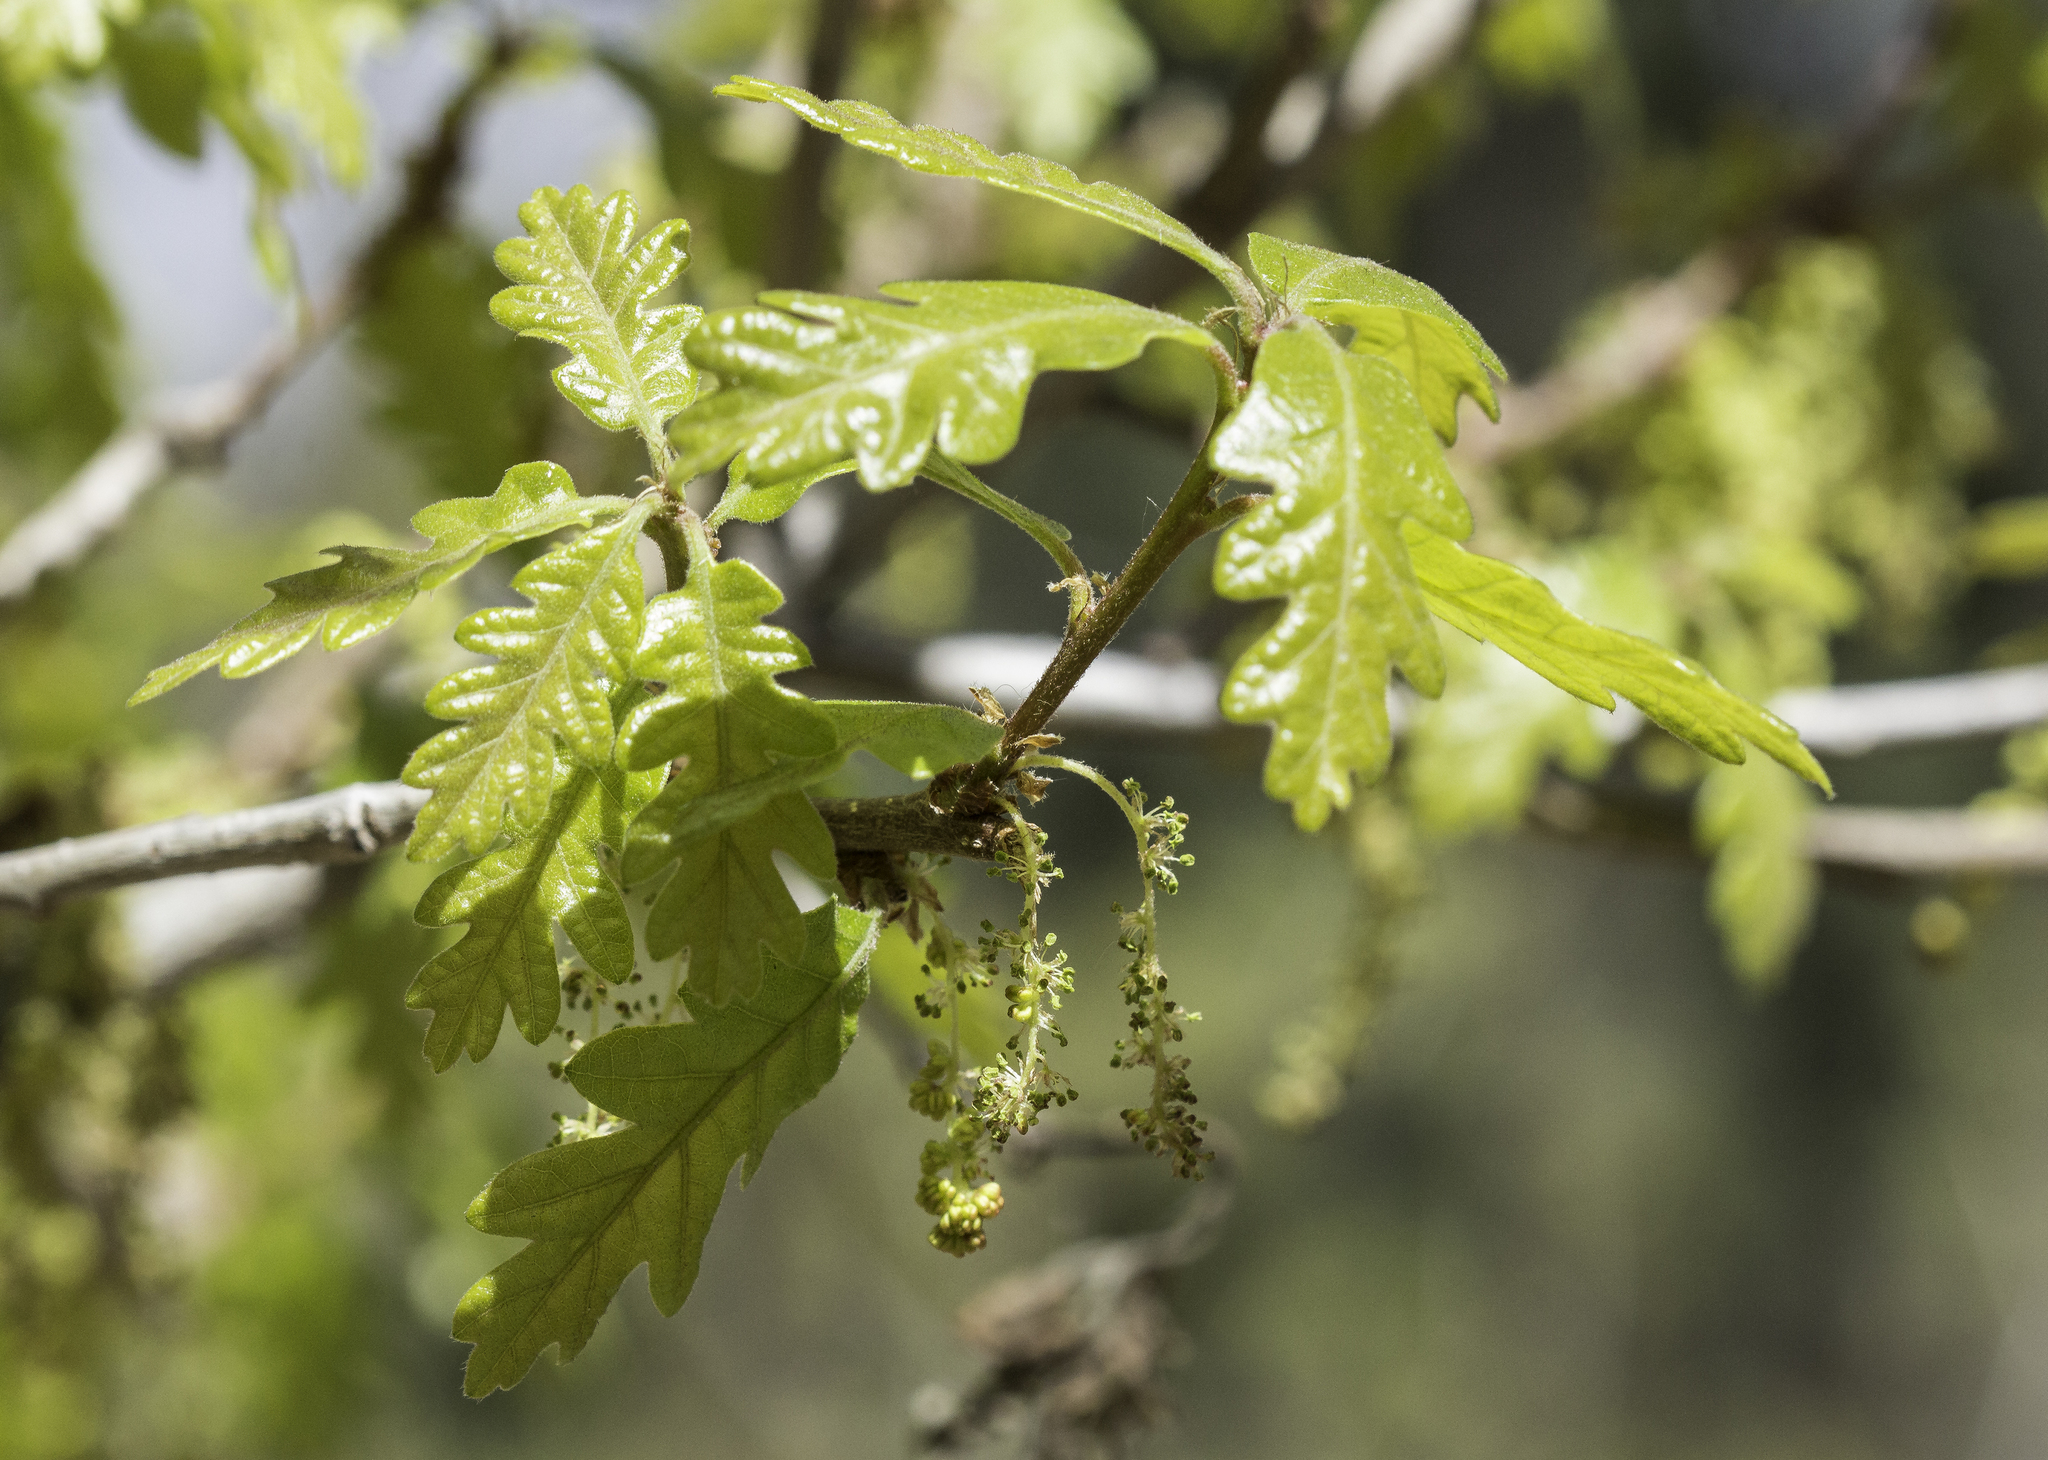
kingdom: Plantae
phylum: Tracheophyta
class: Magnoliopsida
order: Fagales
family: Fagaceae
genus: Quercus
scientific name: Quercus gambelii
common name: Gambel oak
